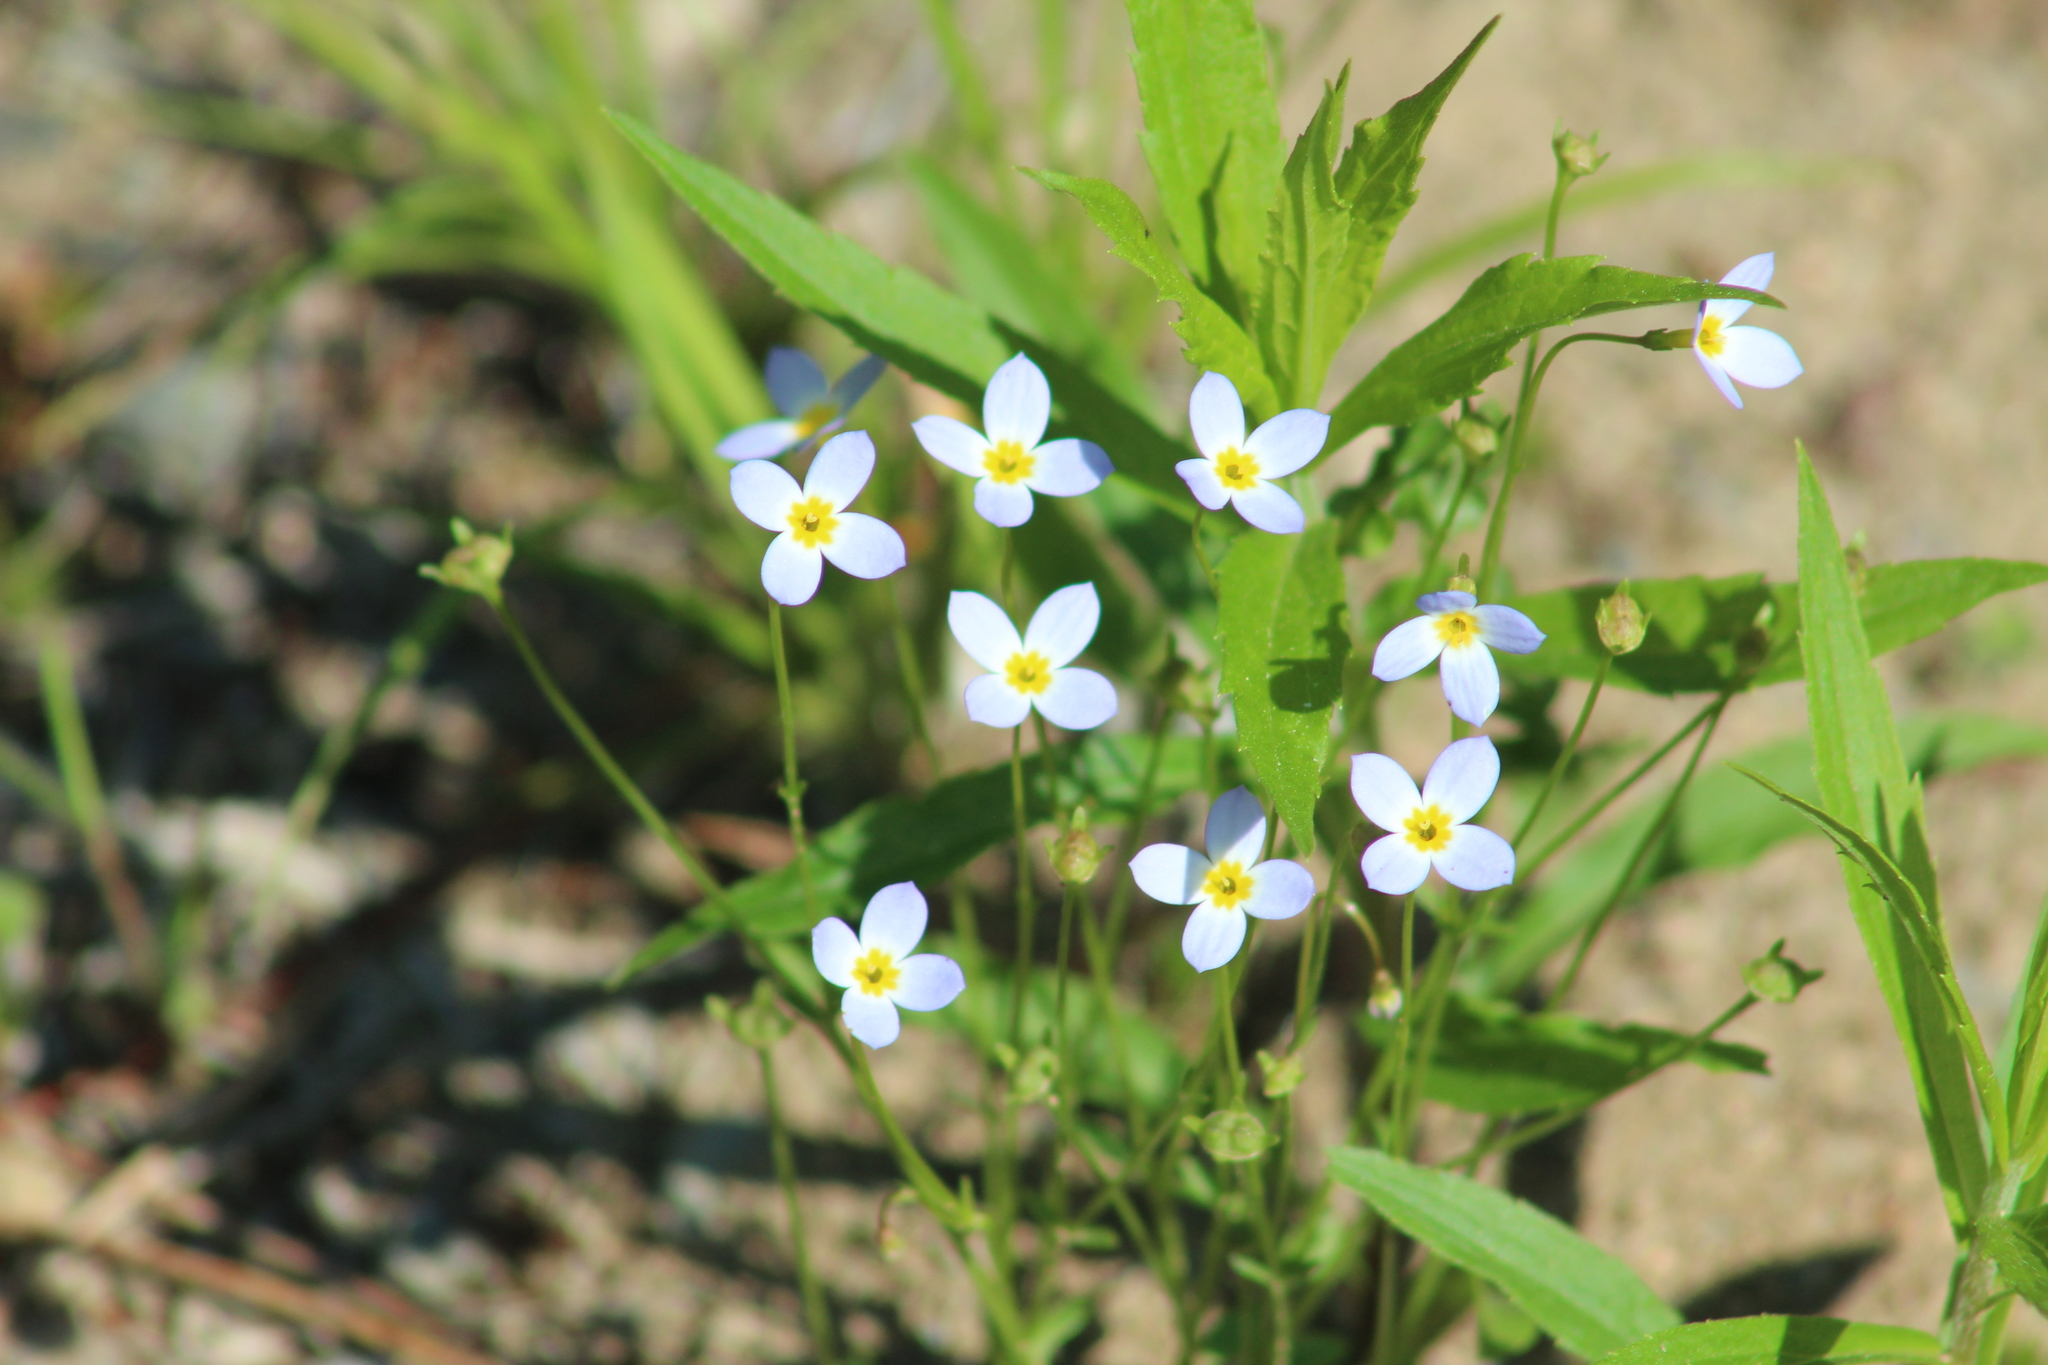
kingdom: Plantae
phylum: Tracheophyta
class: Magnoliopsida
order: Gentianales
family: Rubiaceae
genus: Houstonia
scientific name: Houstonia caerulea
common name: Bluets
